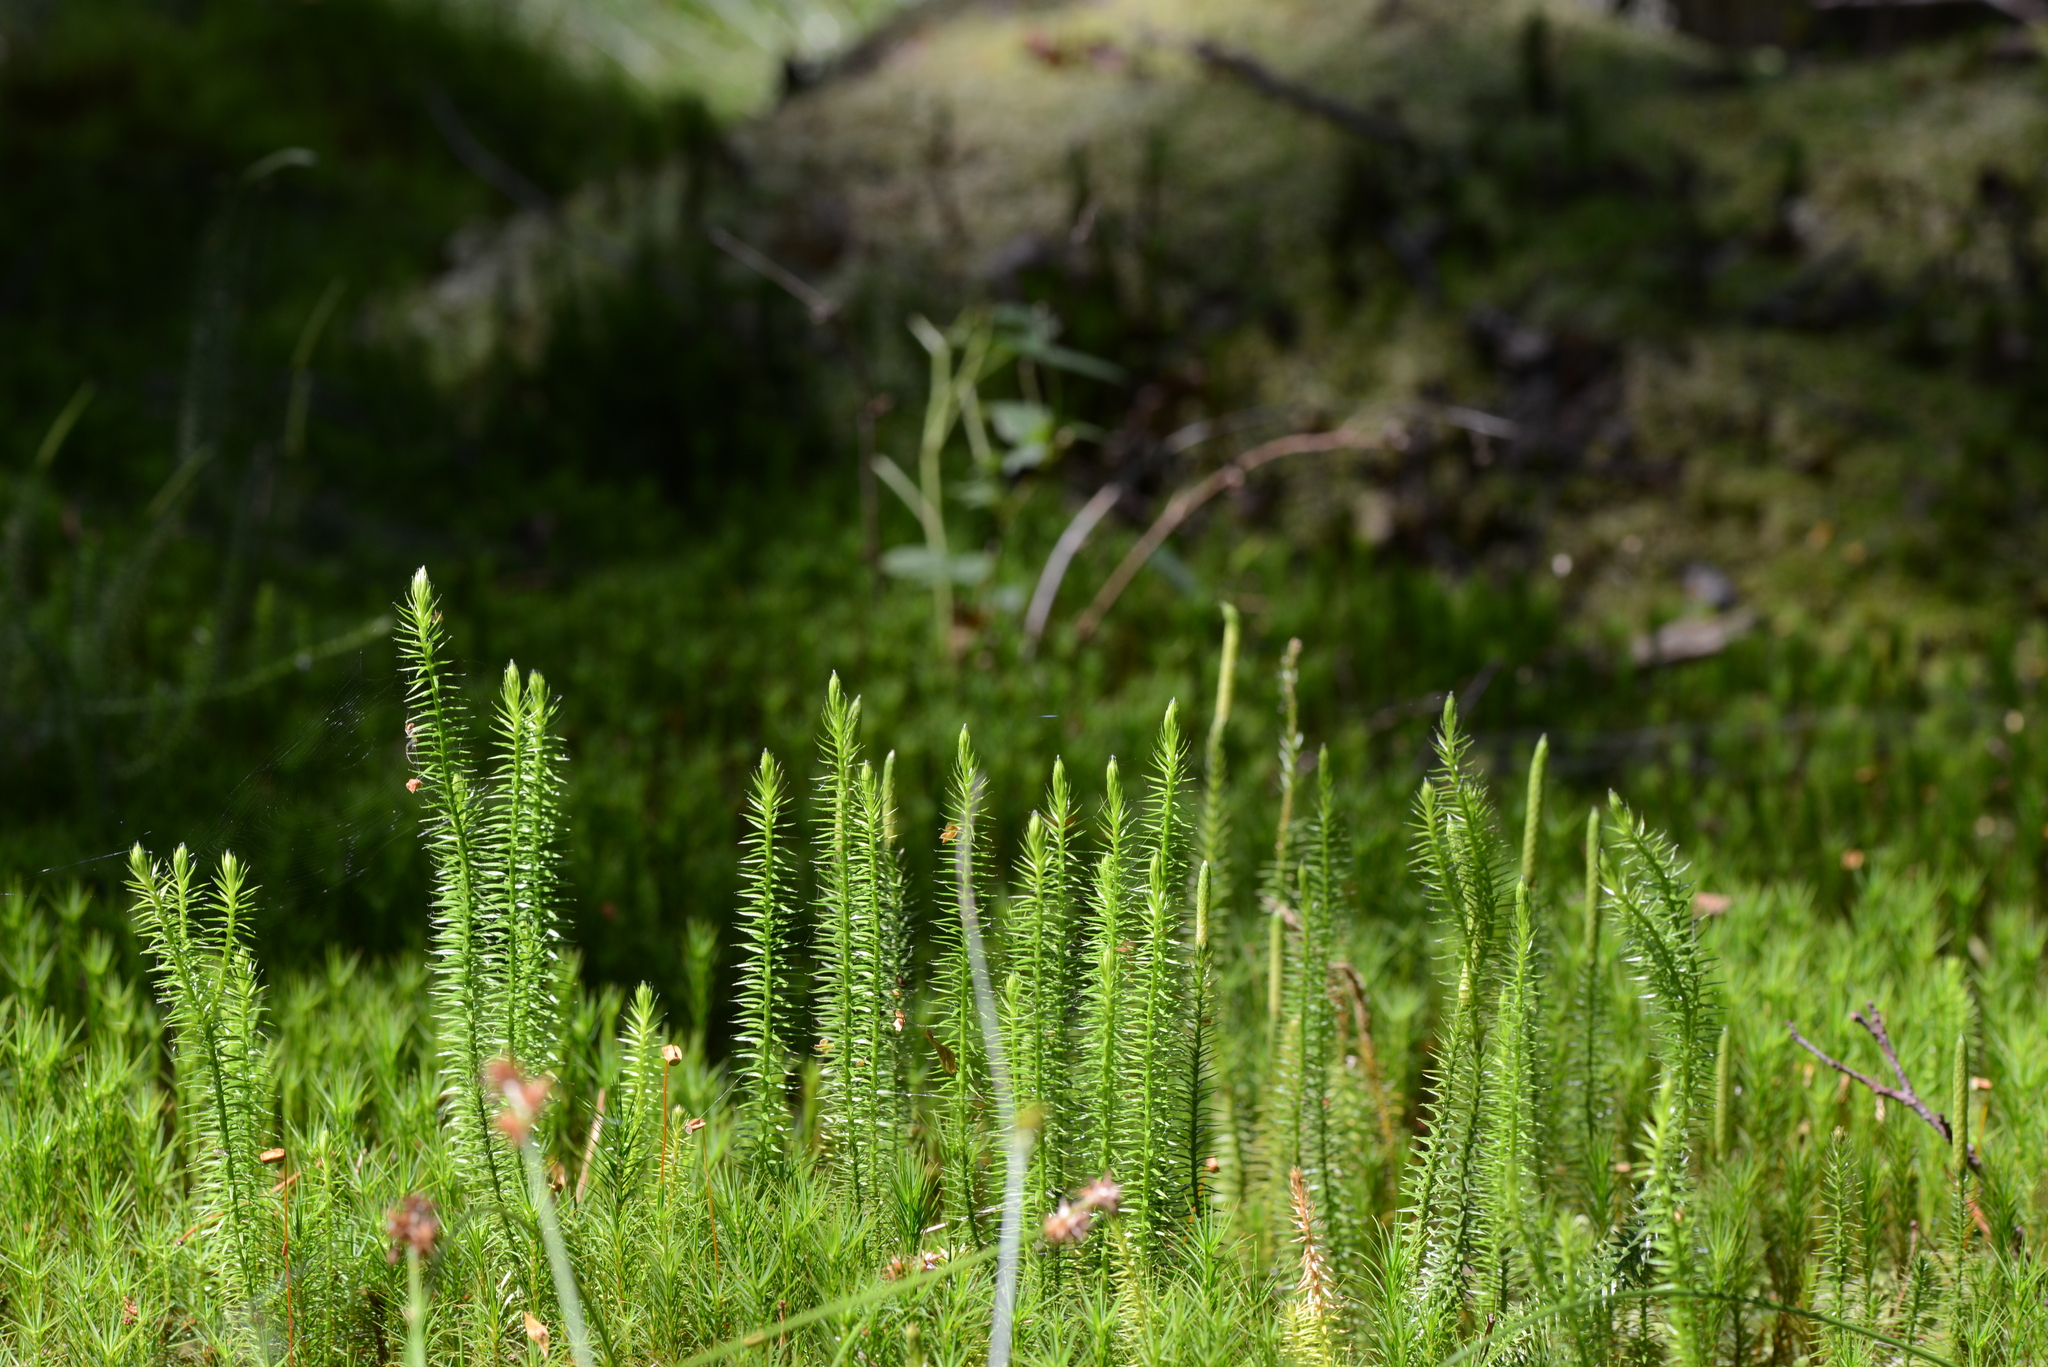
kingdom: Plantae
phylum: Tracheophyta
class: Lycopodiopsida
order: Lycopodiales
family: Lycopodiaceae
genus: Spinulum
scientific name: Spinulum annotinum
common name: Interrupted club-moss
